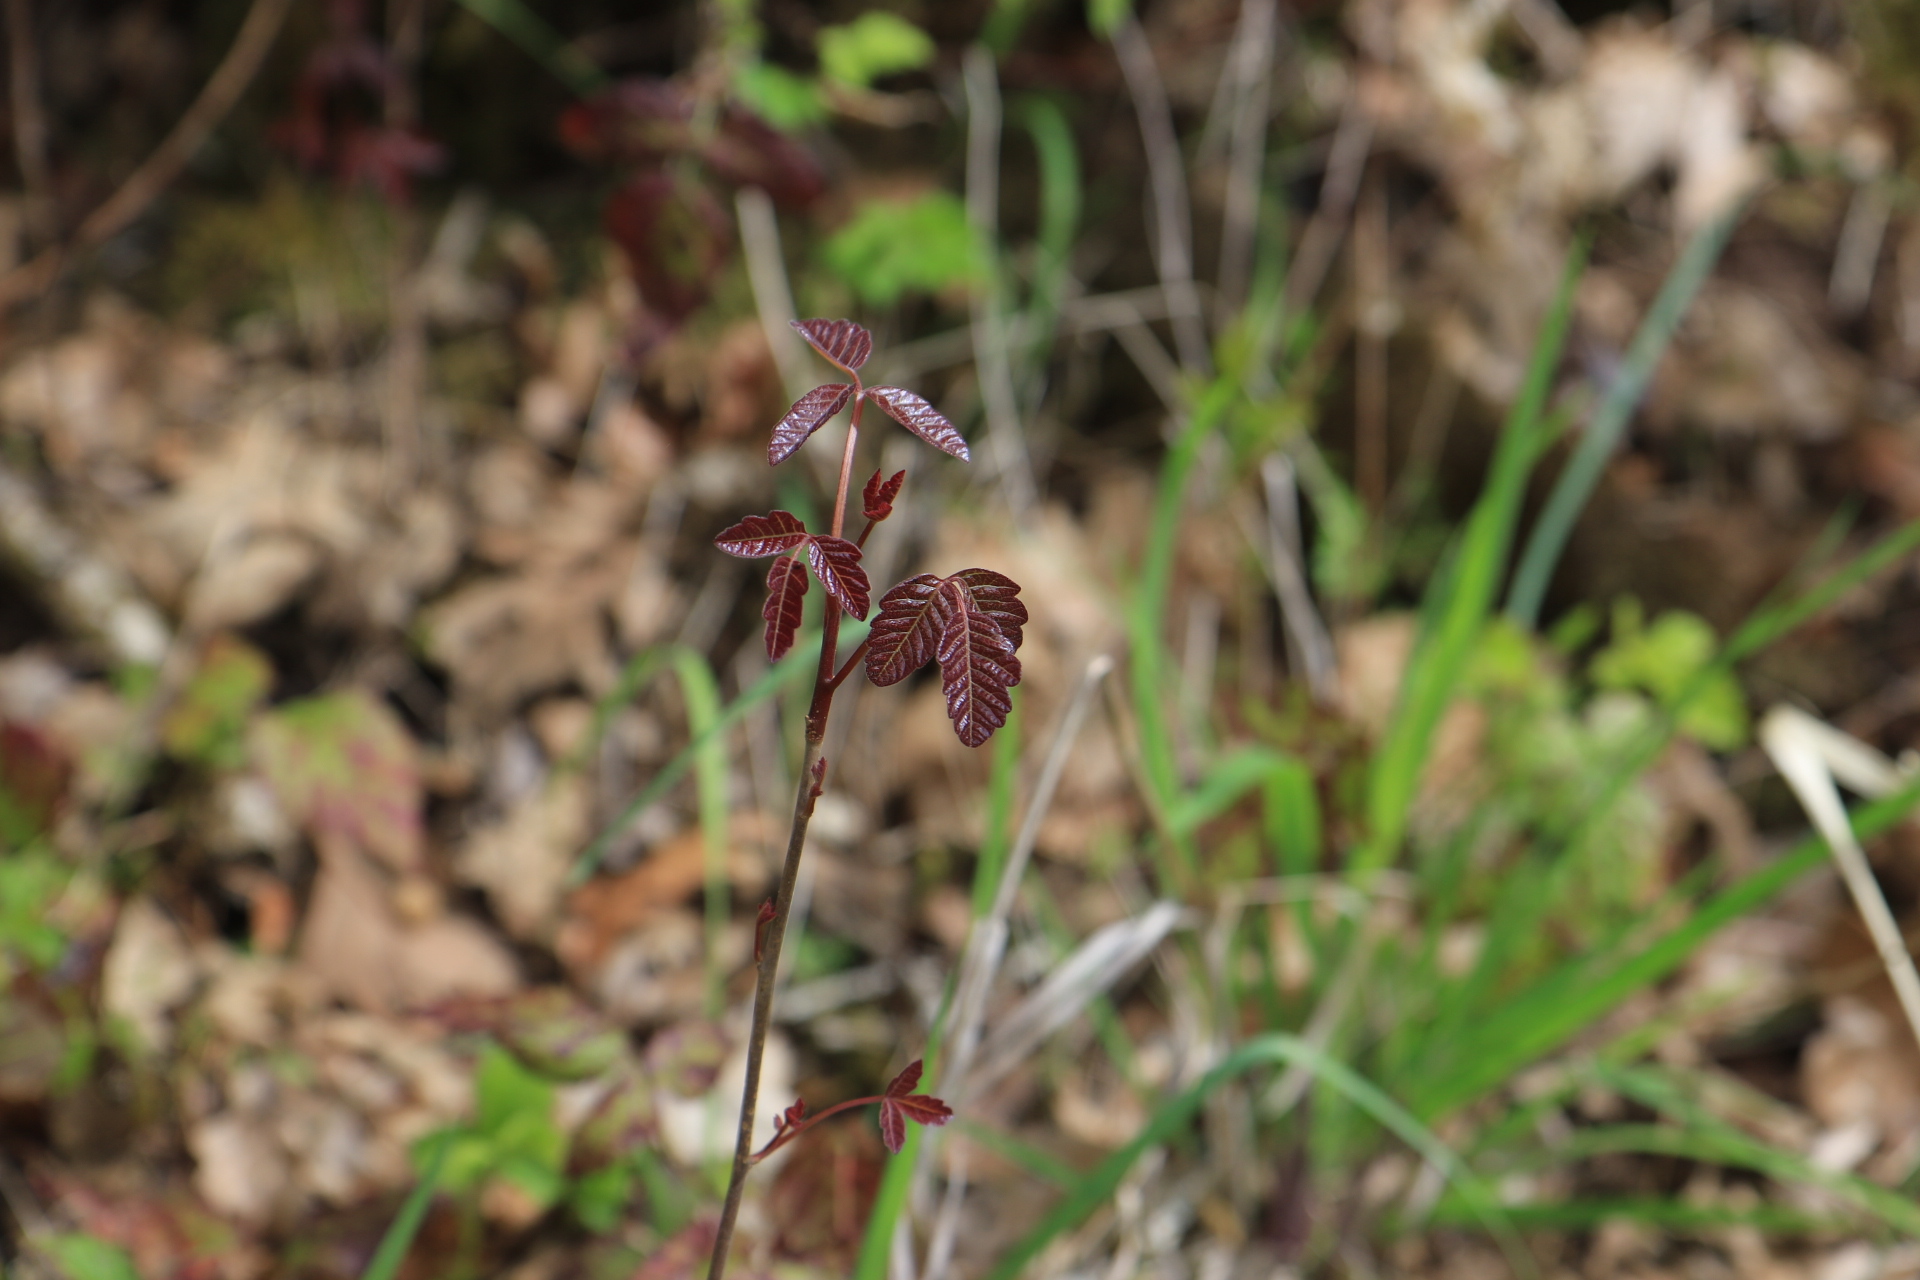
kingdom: Plantae
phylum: Tracheophyta
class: Magnoliopsida
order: Sapindales
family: Anacardiaceae
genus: Toxicodendron
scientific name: Toxicodendron diversilobum
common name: Pacific poison-oak
